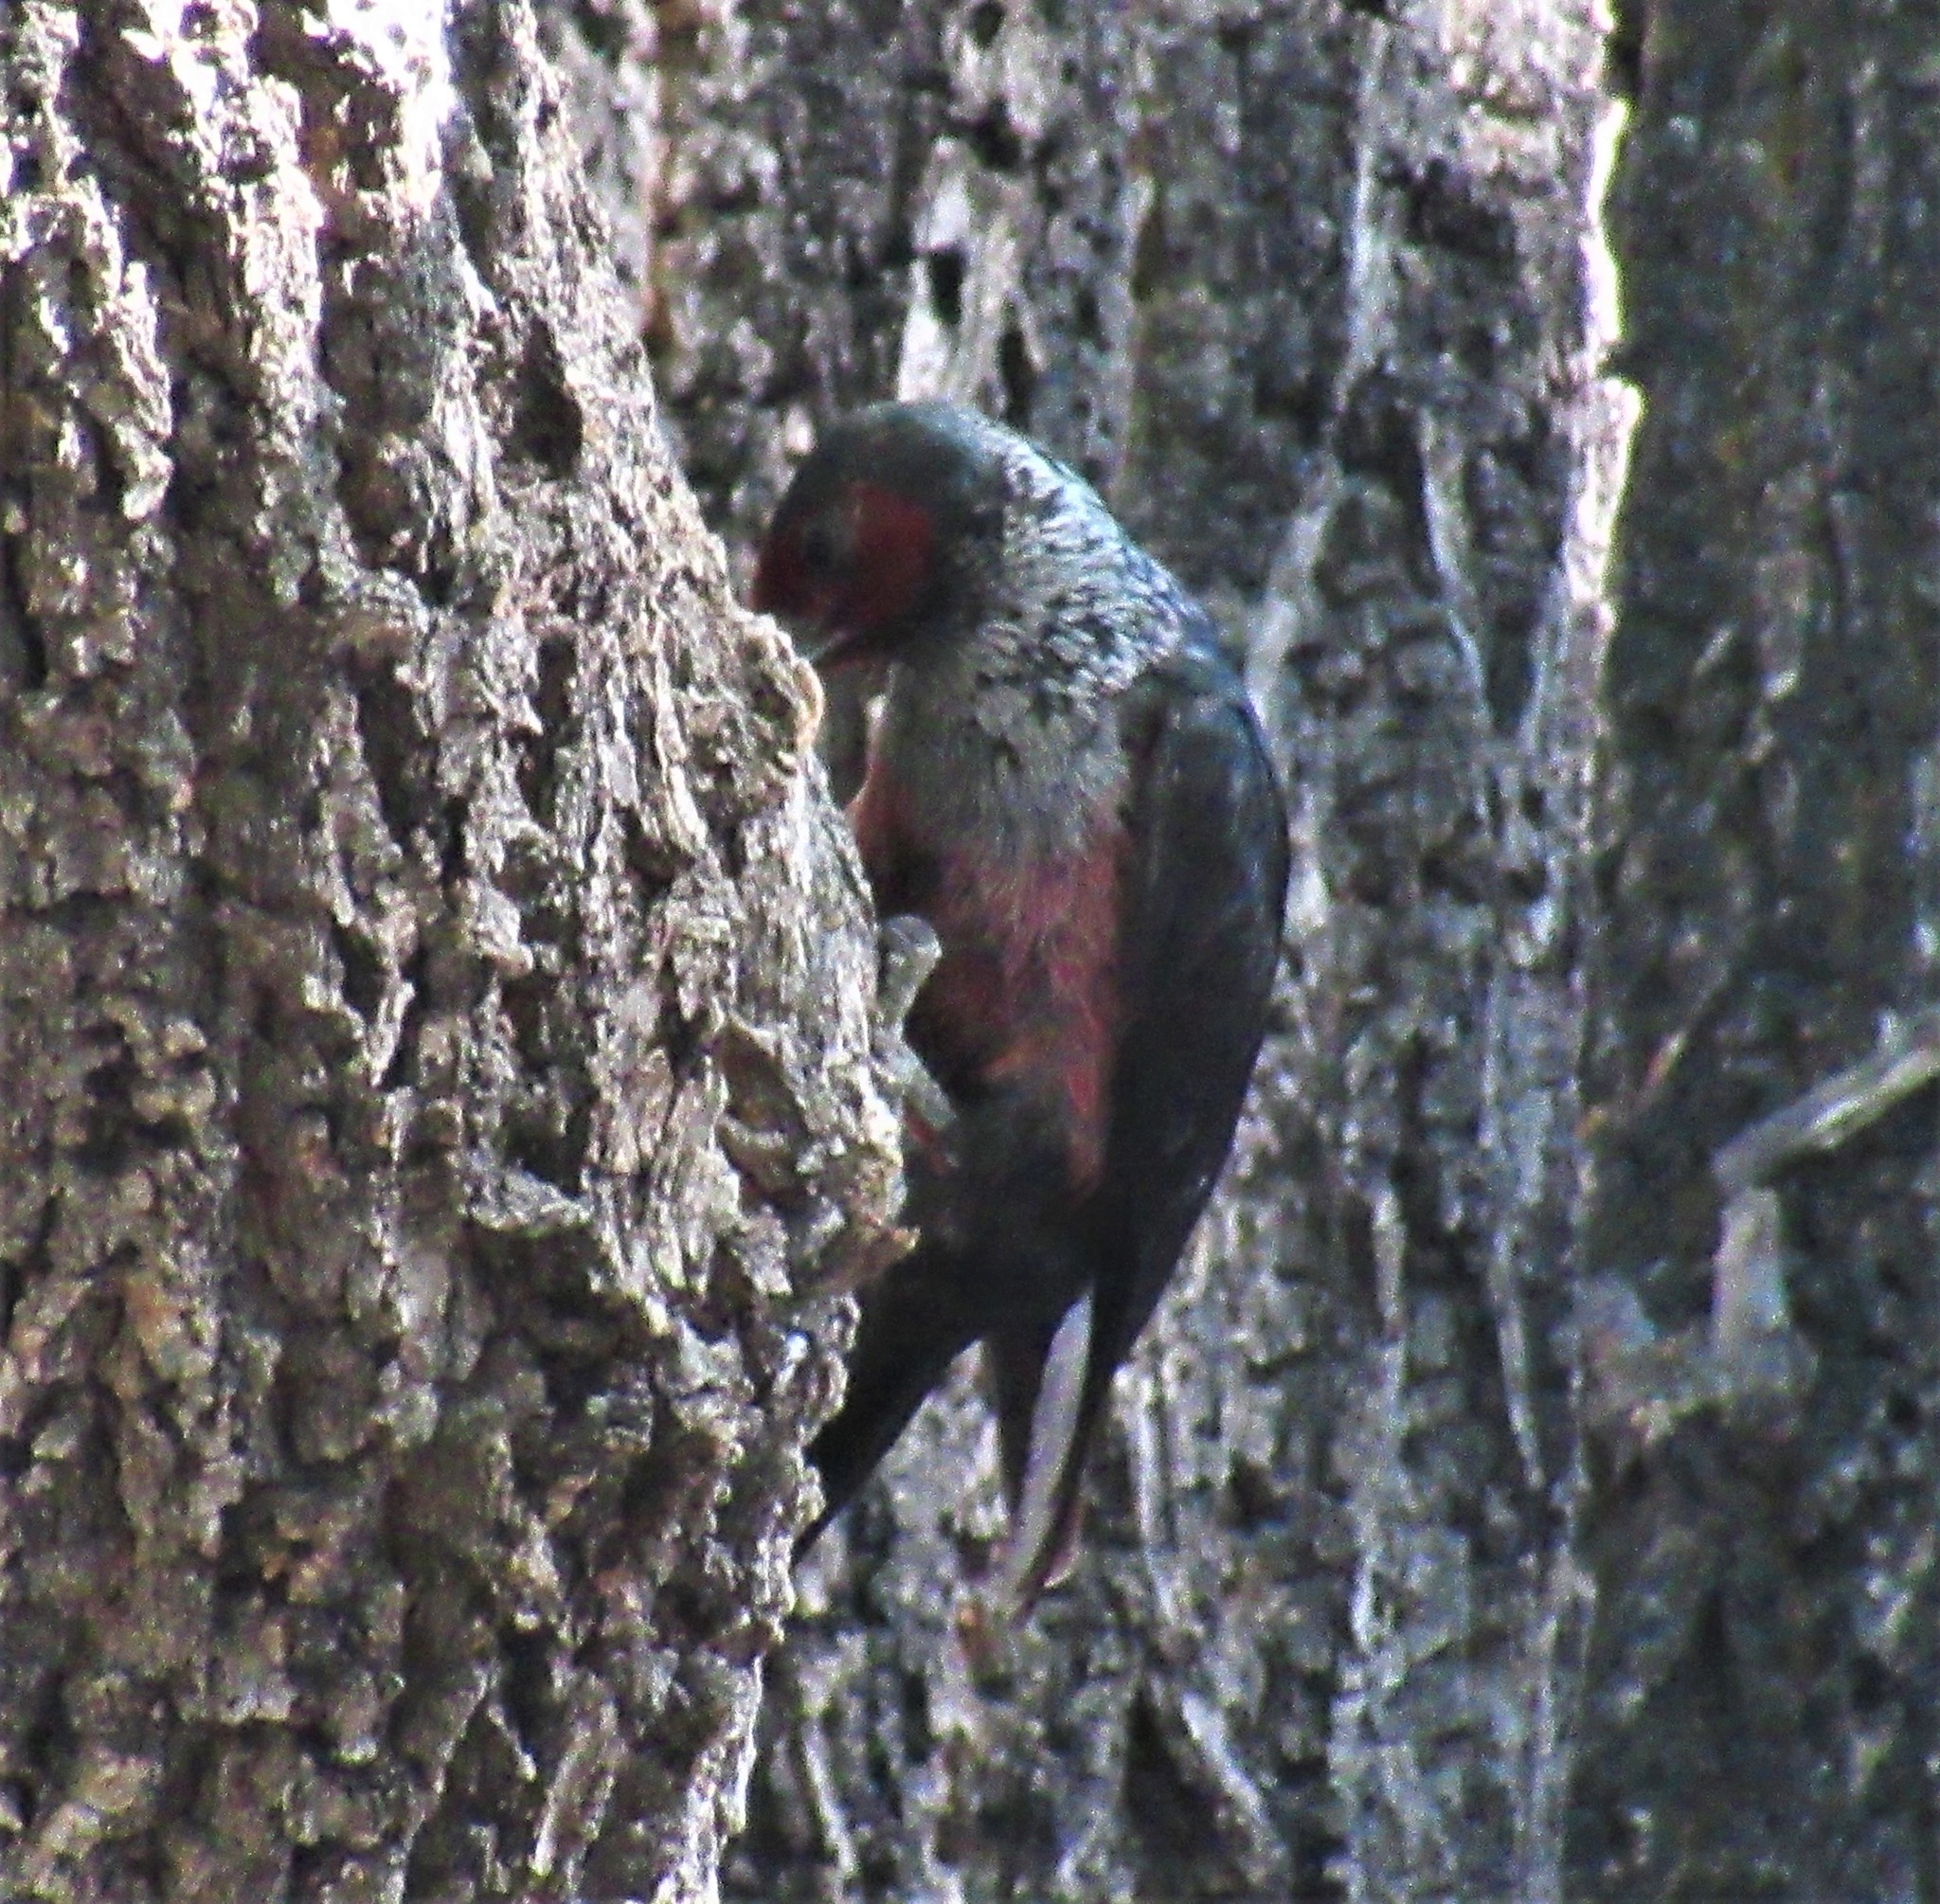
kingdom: Animalia
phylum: Chordata
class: Aves
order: Piciformes
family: Picidae
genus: Melanerpes
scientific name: Melanerpes lewis
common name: Lewis's woodpecker
